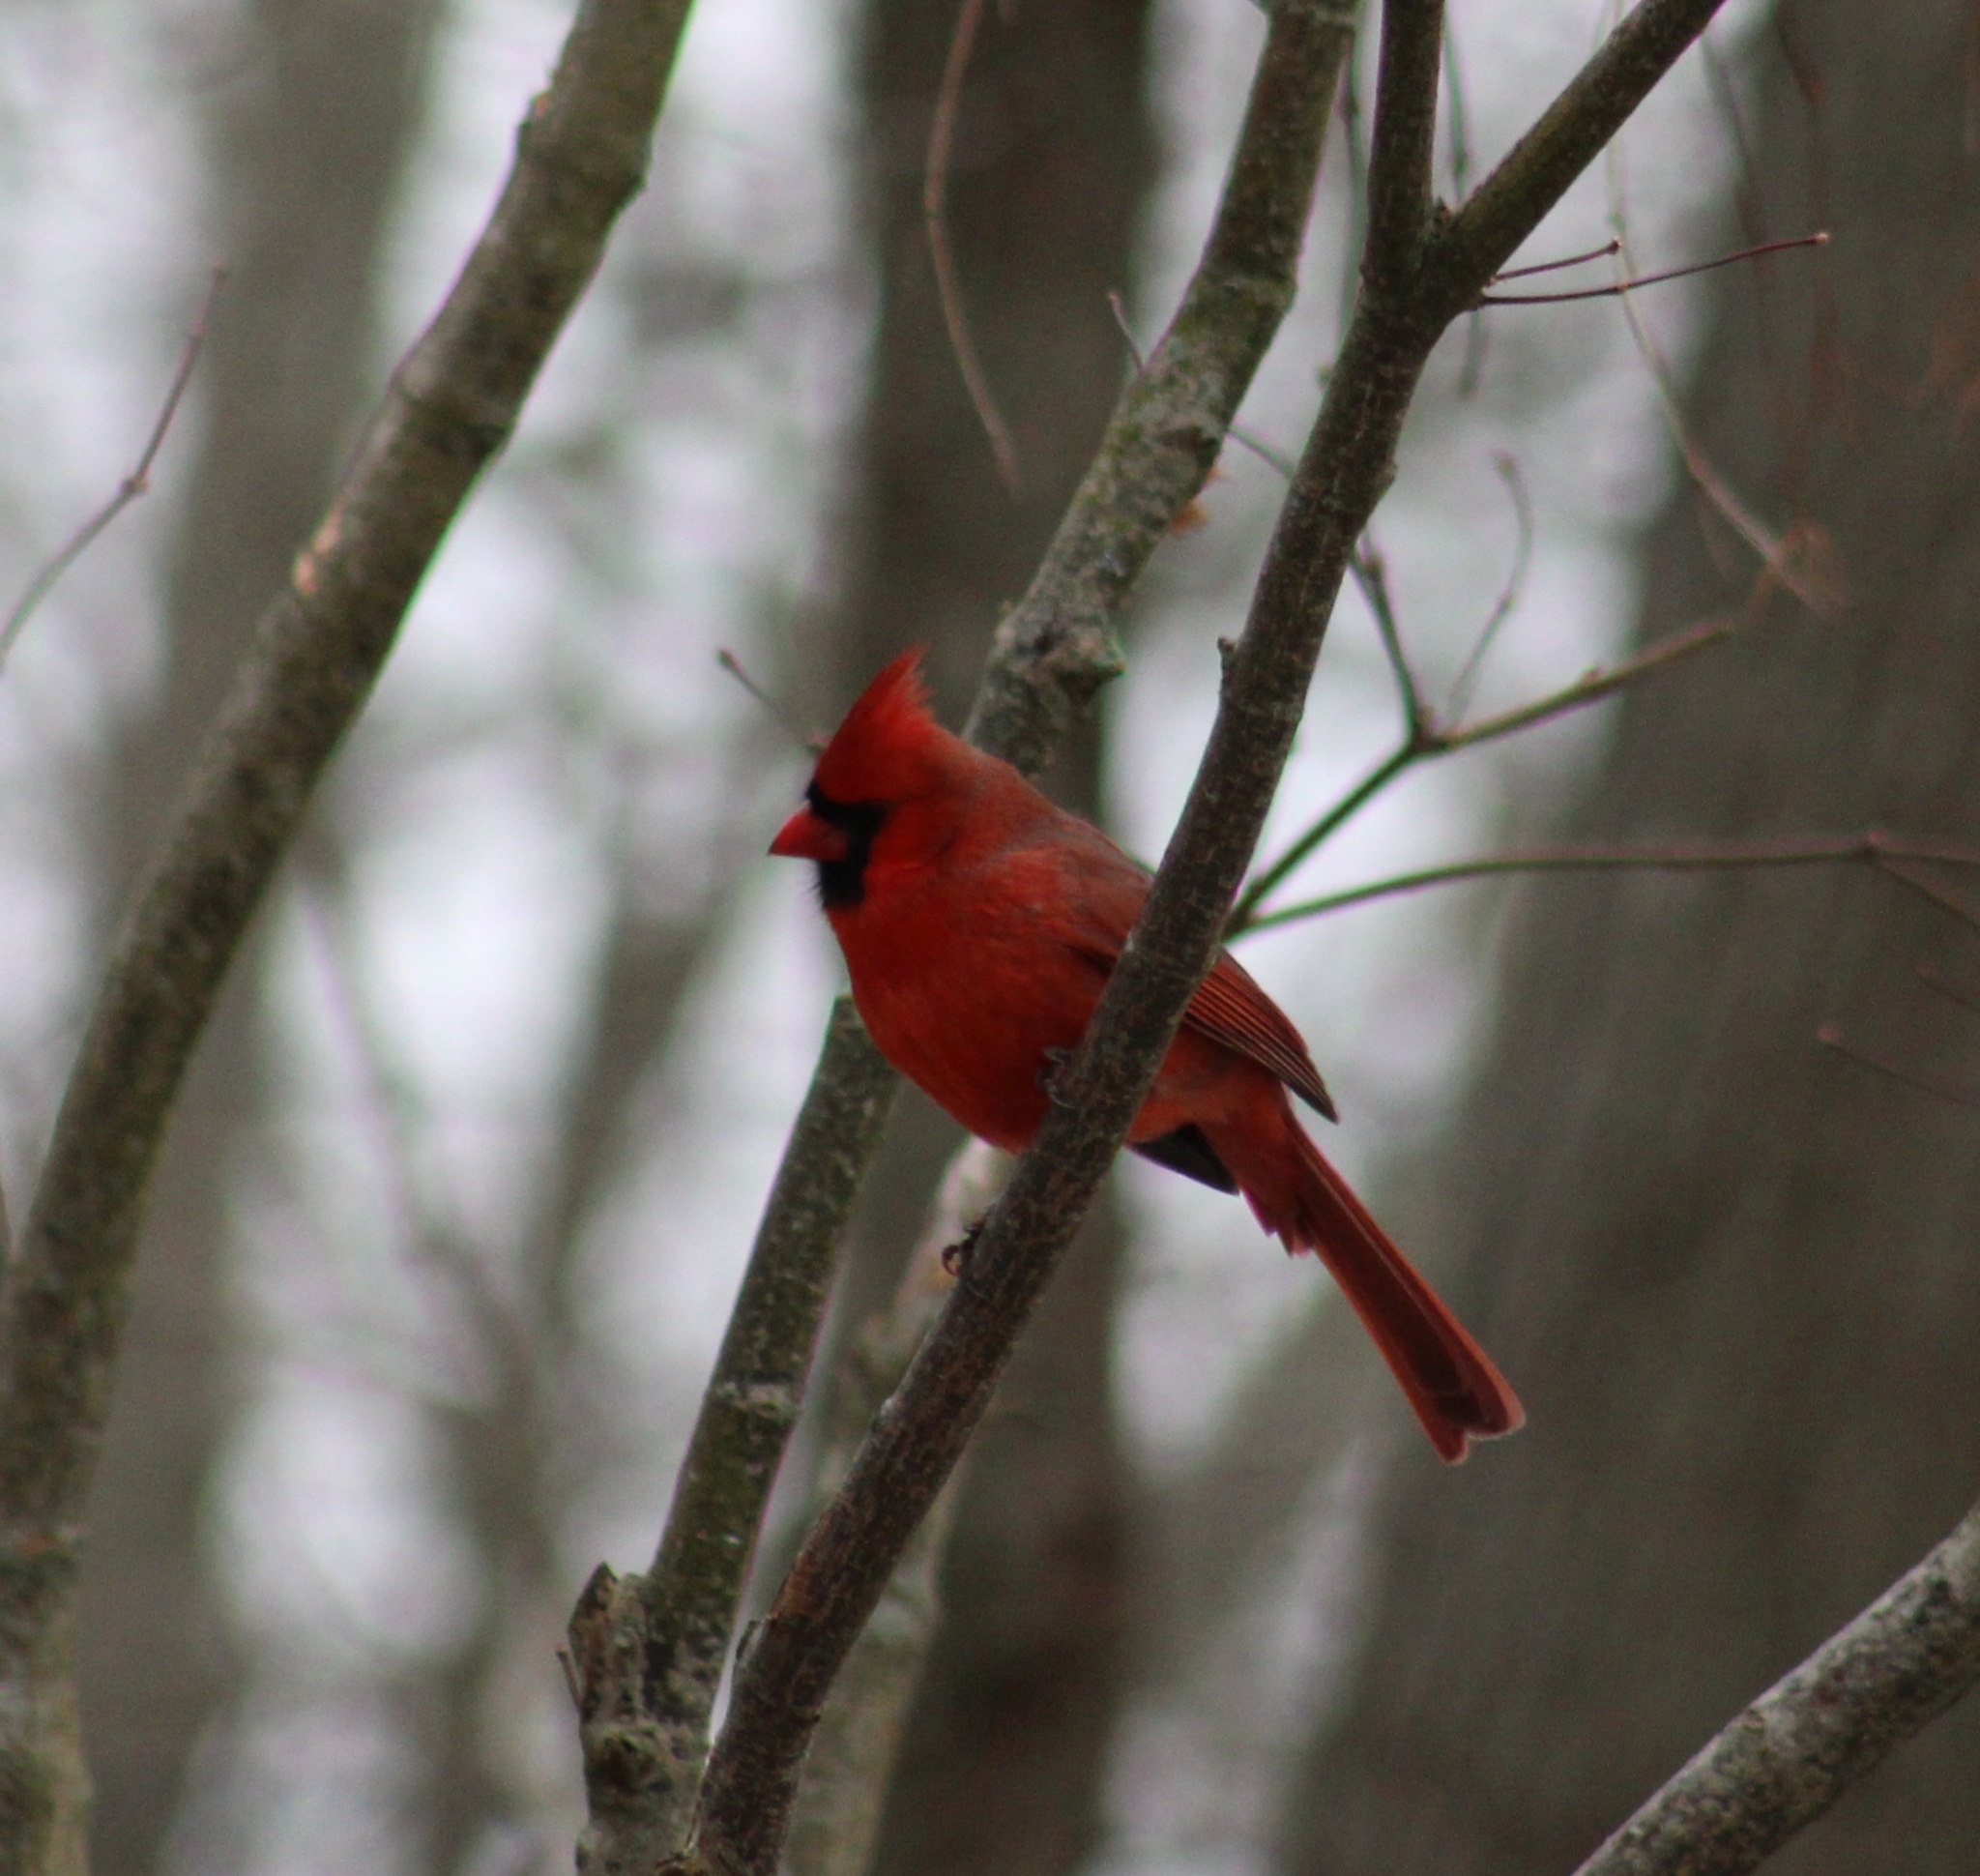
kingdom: Animalia
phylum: Chordata
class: Aves
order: Passeriformes
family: Cardinalidae
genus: Cardinalis
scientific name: Cardinalis cardinalis
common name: Northern cardinal
